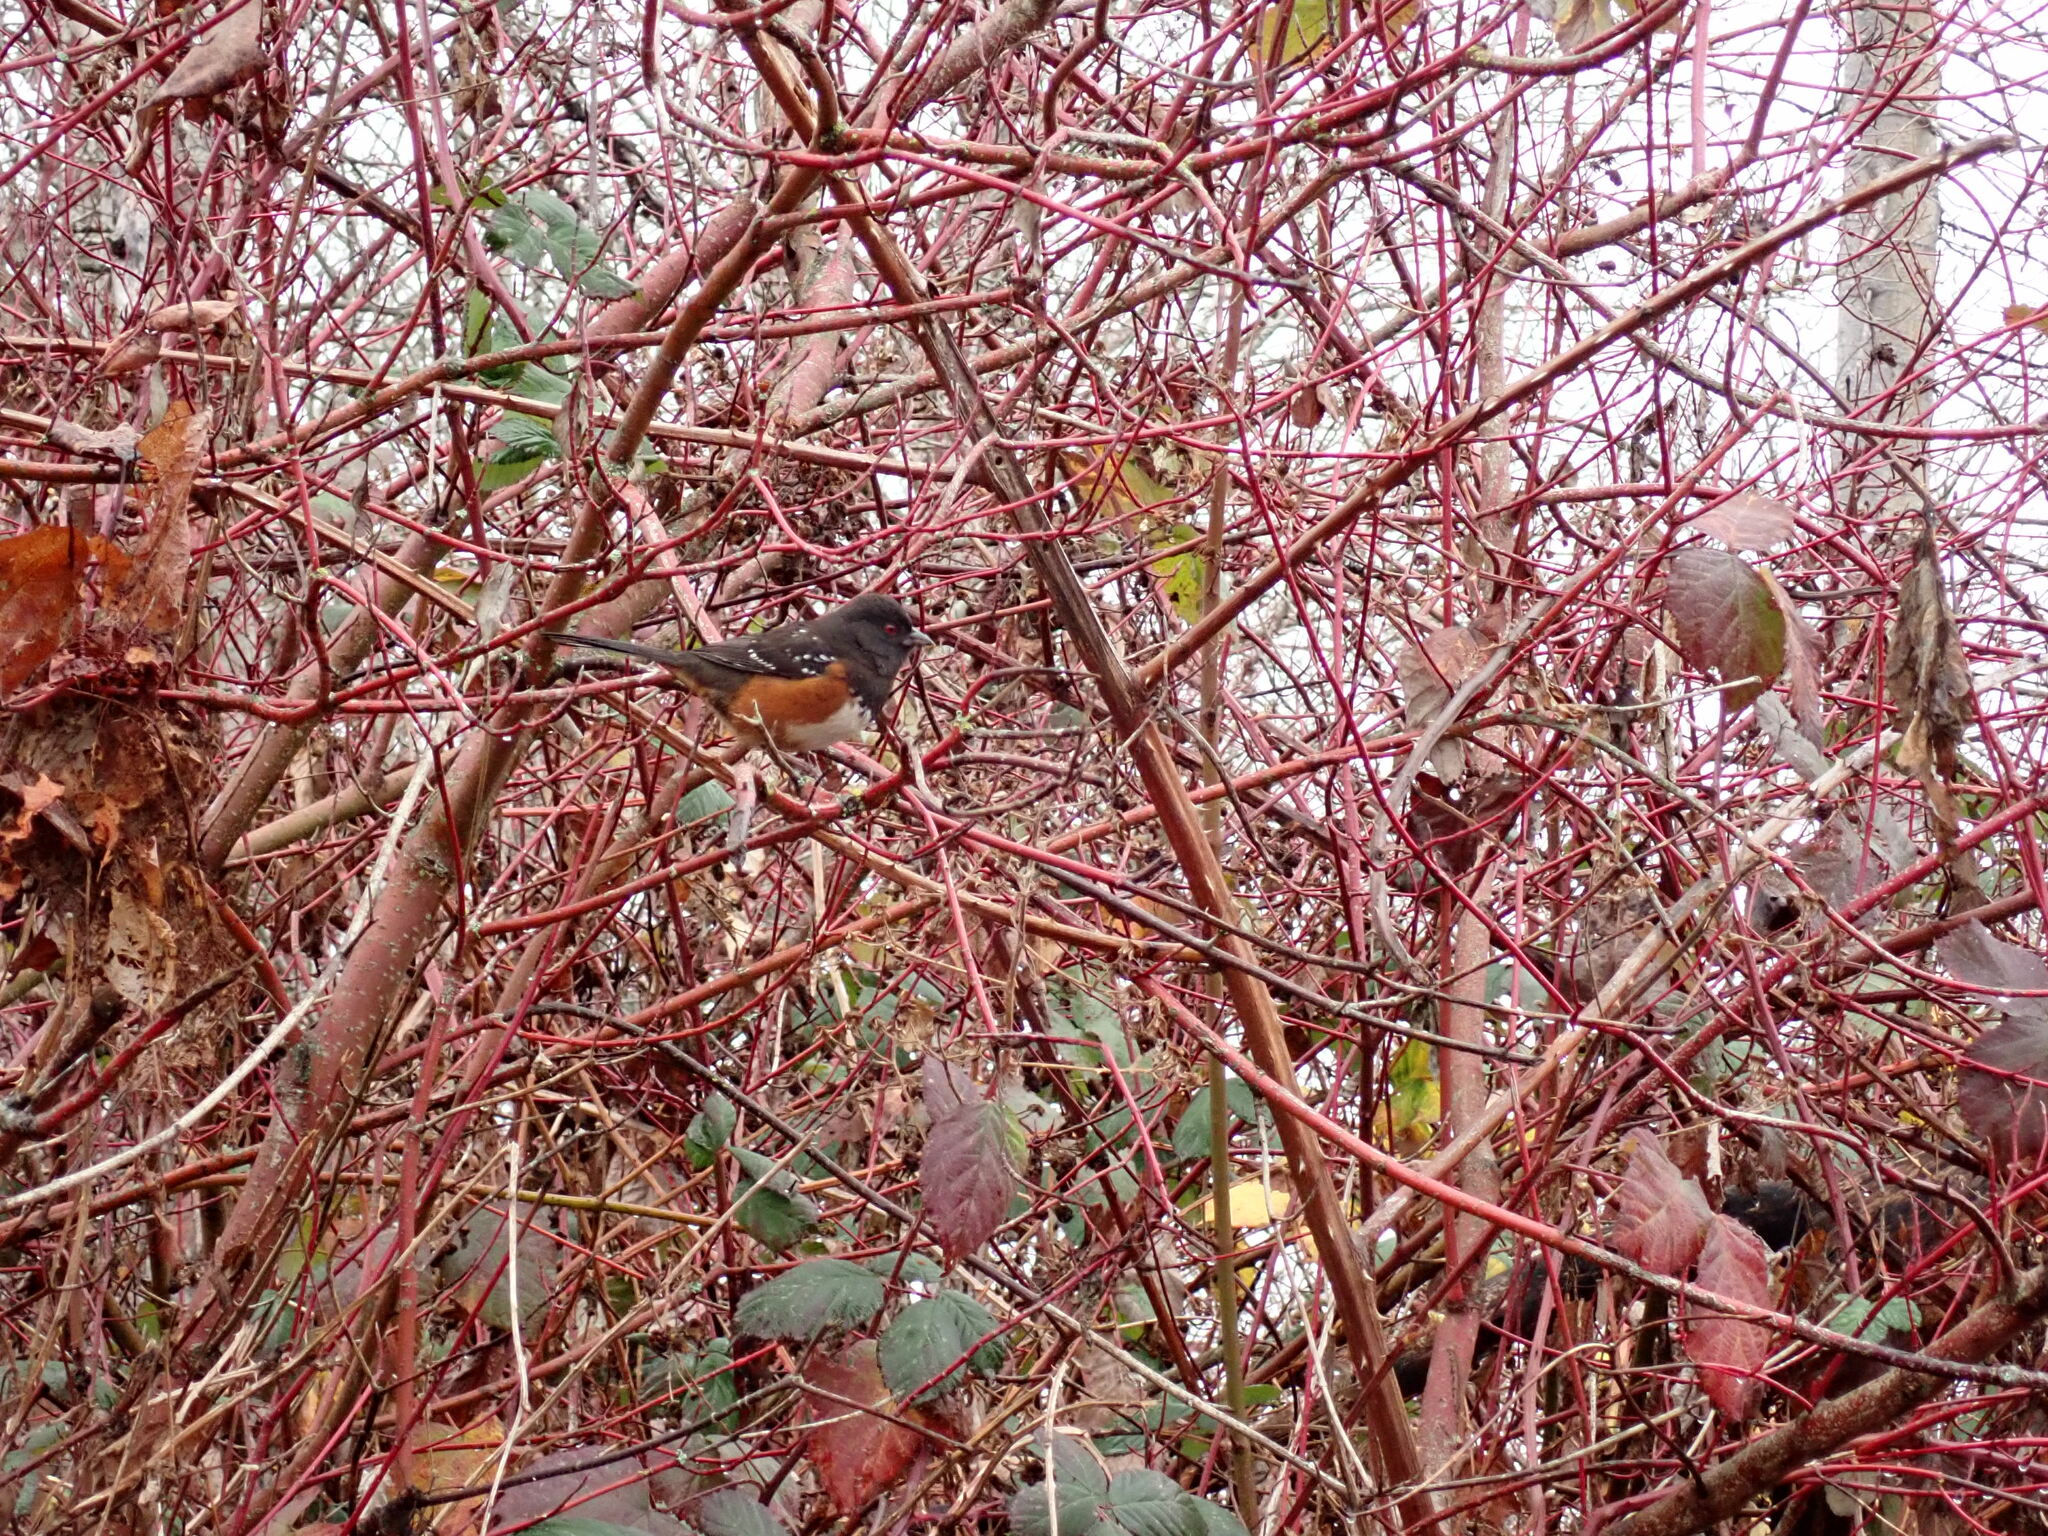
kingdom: Animalia
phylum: Chordata
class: Aves
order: Passeriformes
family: Passerellidae
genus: Pipilo
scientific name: Pipilo maculatus
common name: Spotted towhee
